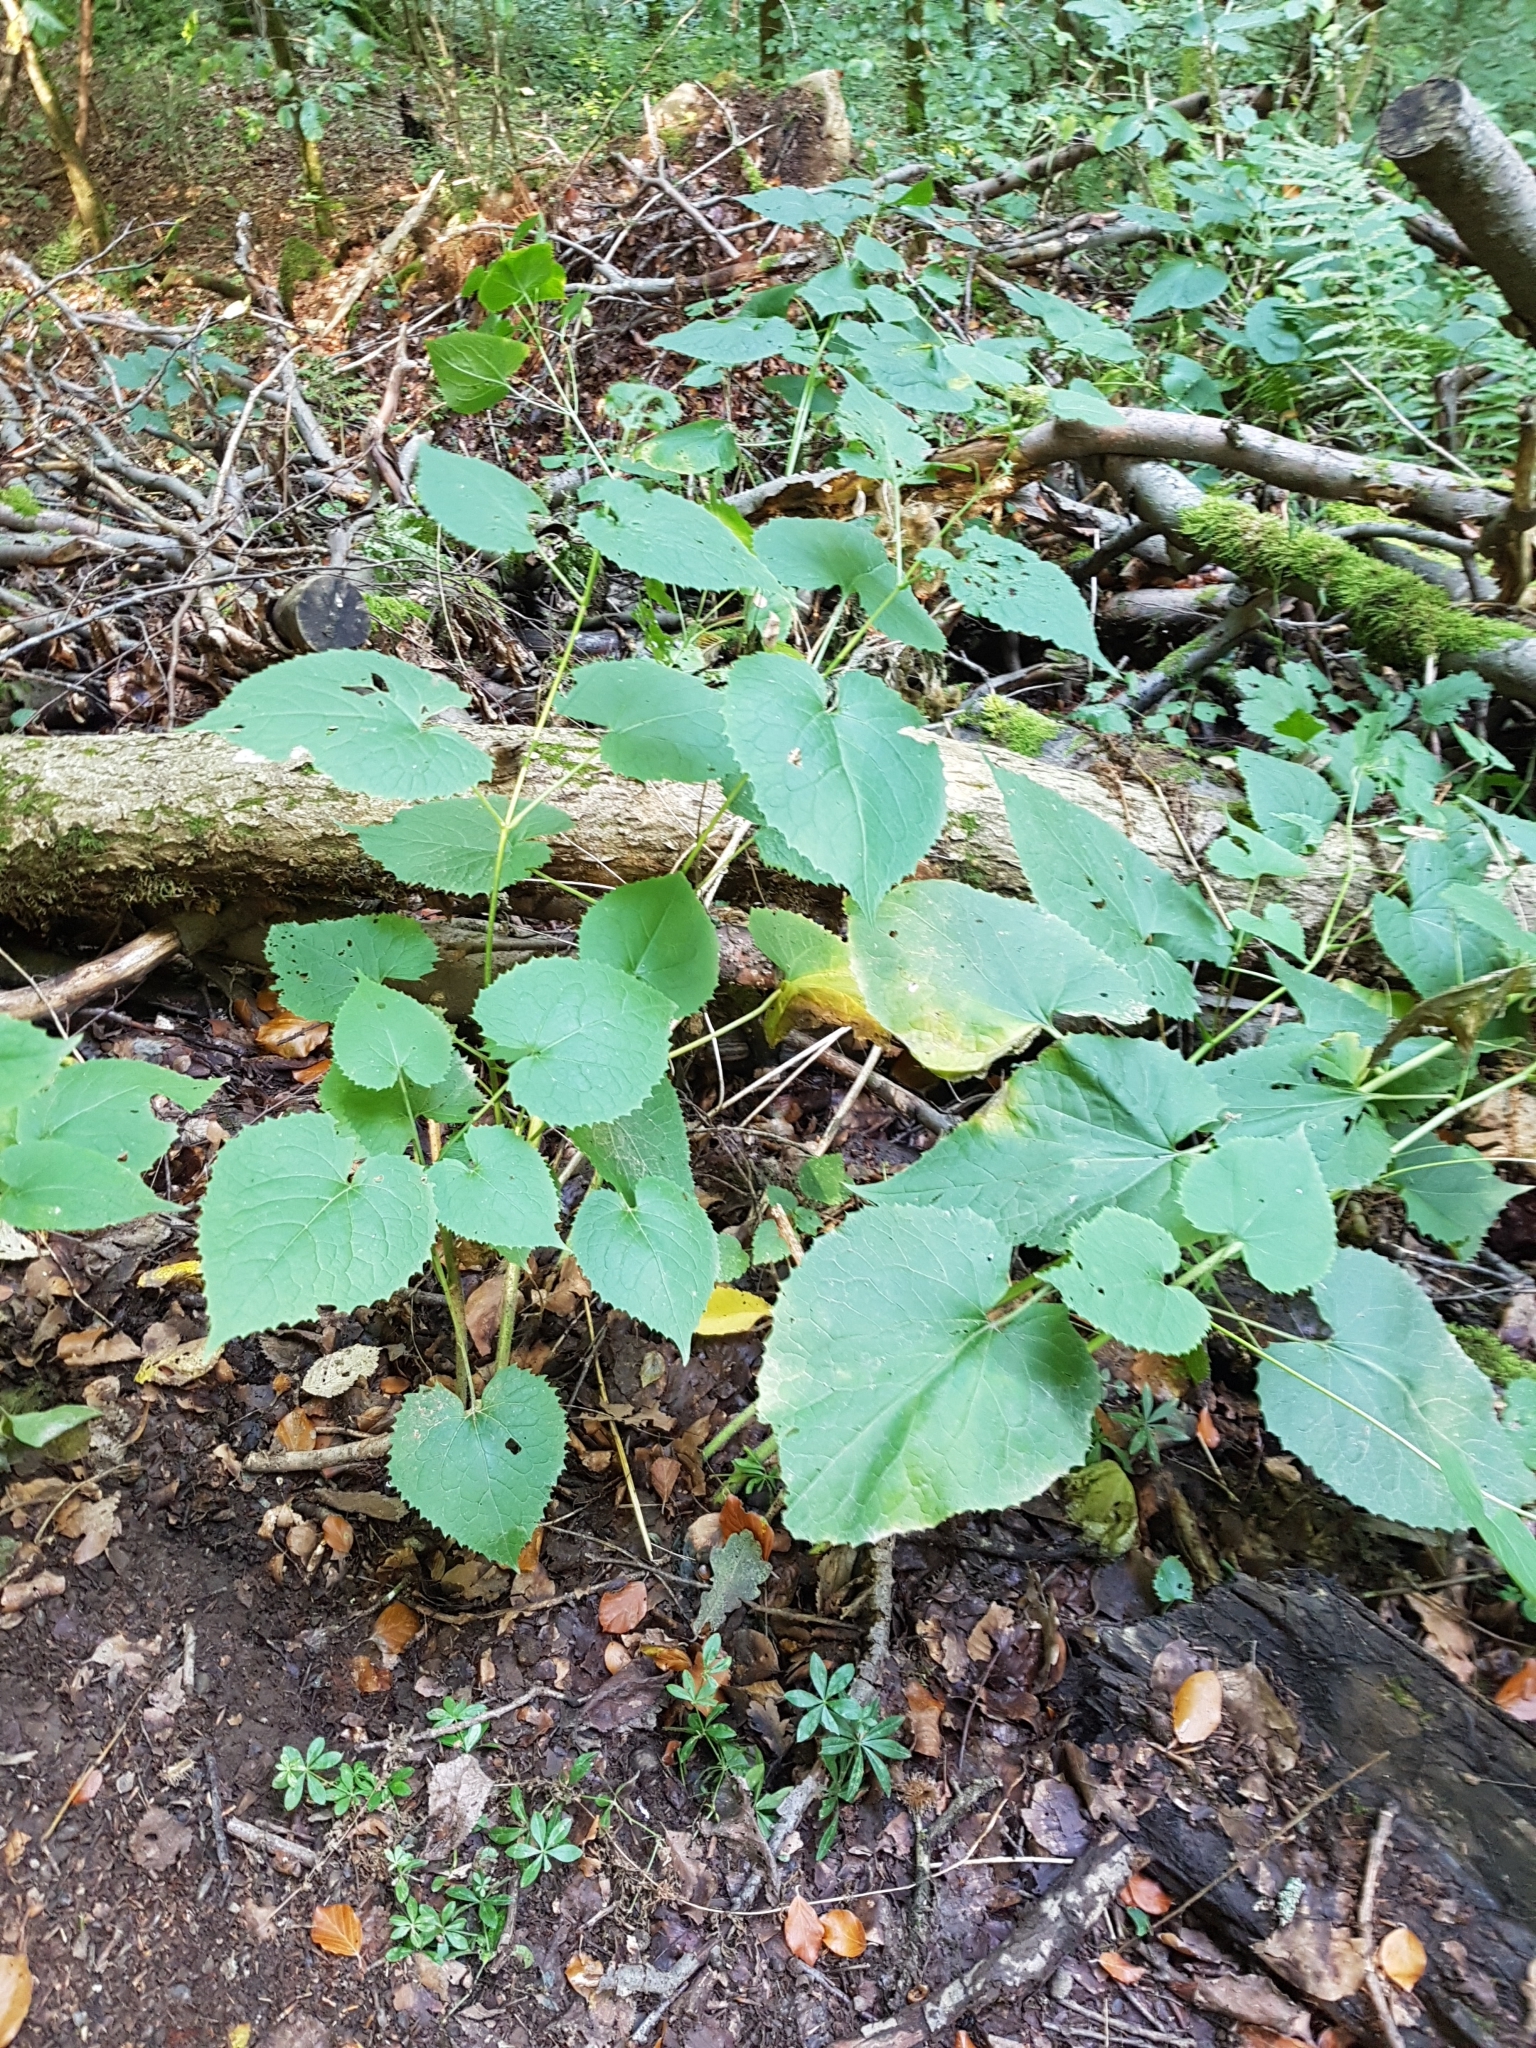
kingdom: Plantae
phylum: Tracheophyta
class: Magnoliopsida
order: Brassicales
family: Brassicaceae
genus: Lunaria
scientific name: Lunaria rediviva
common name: Perennial honesty
